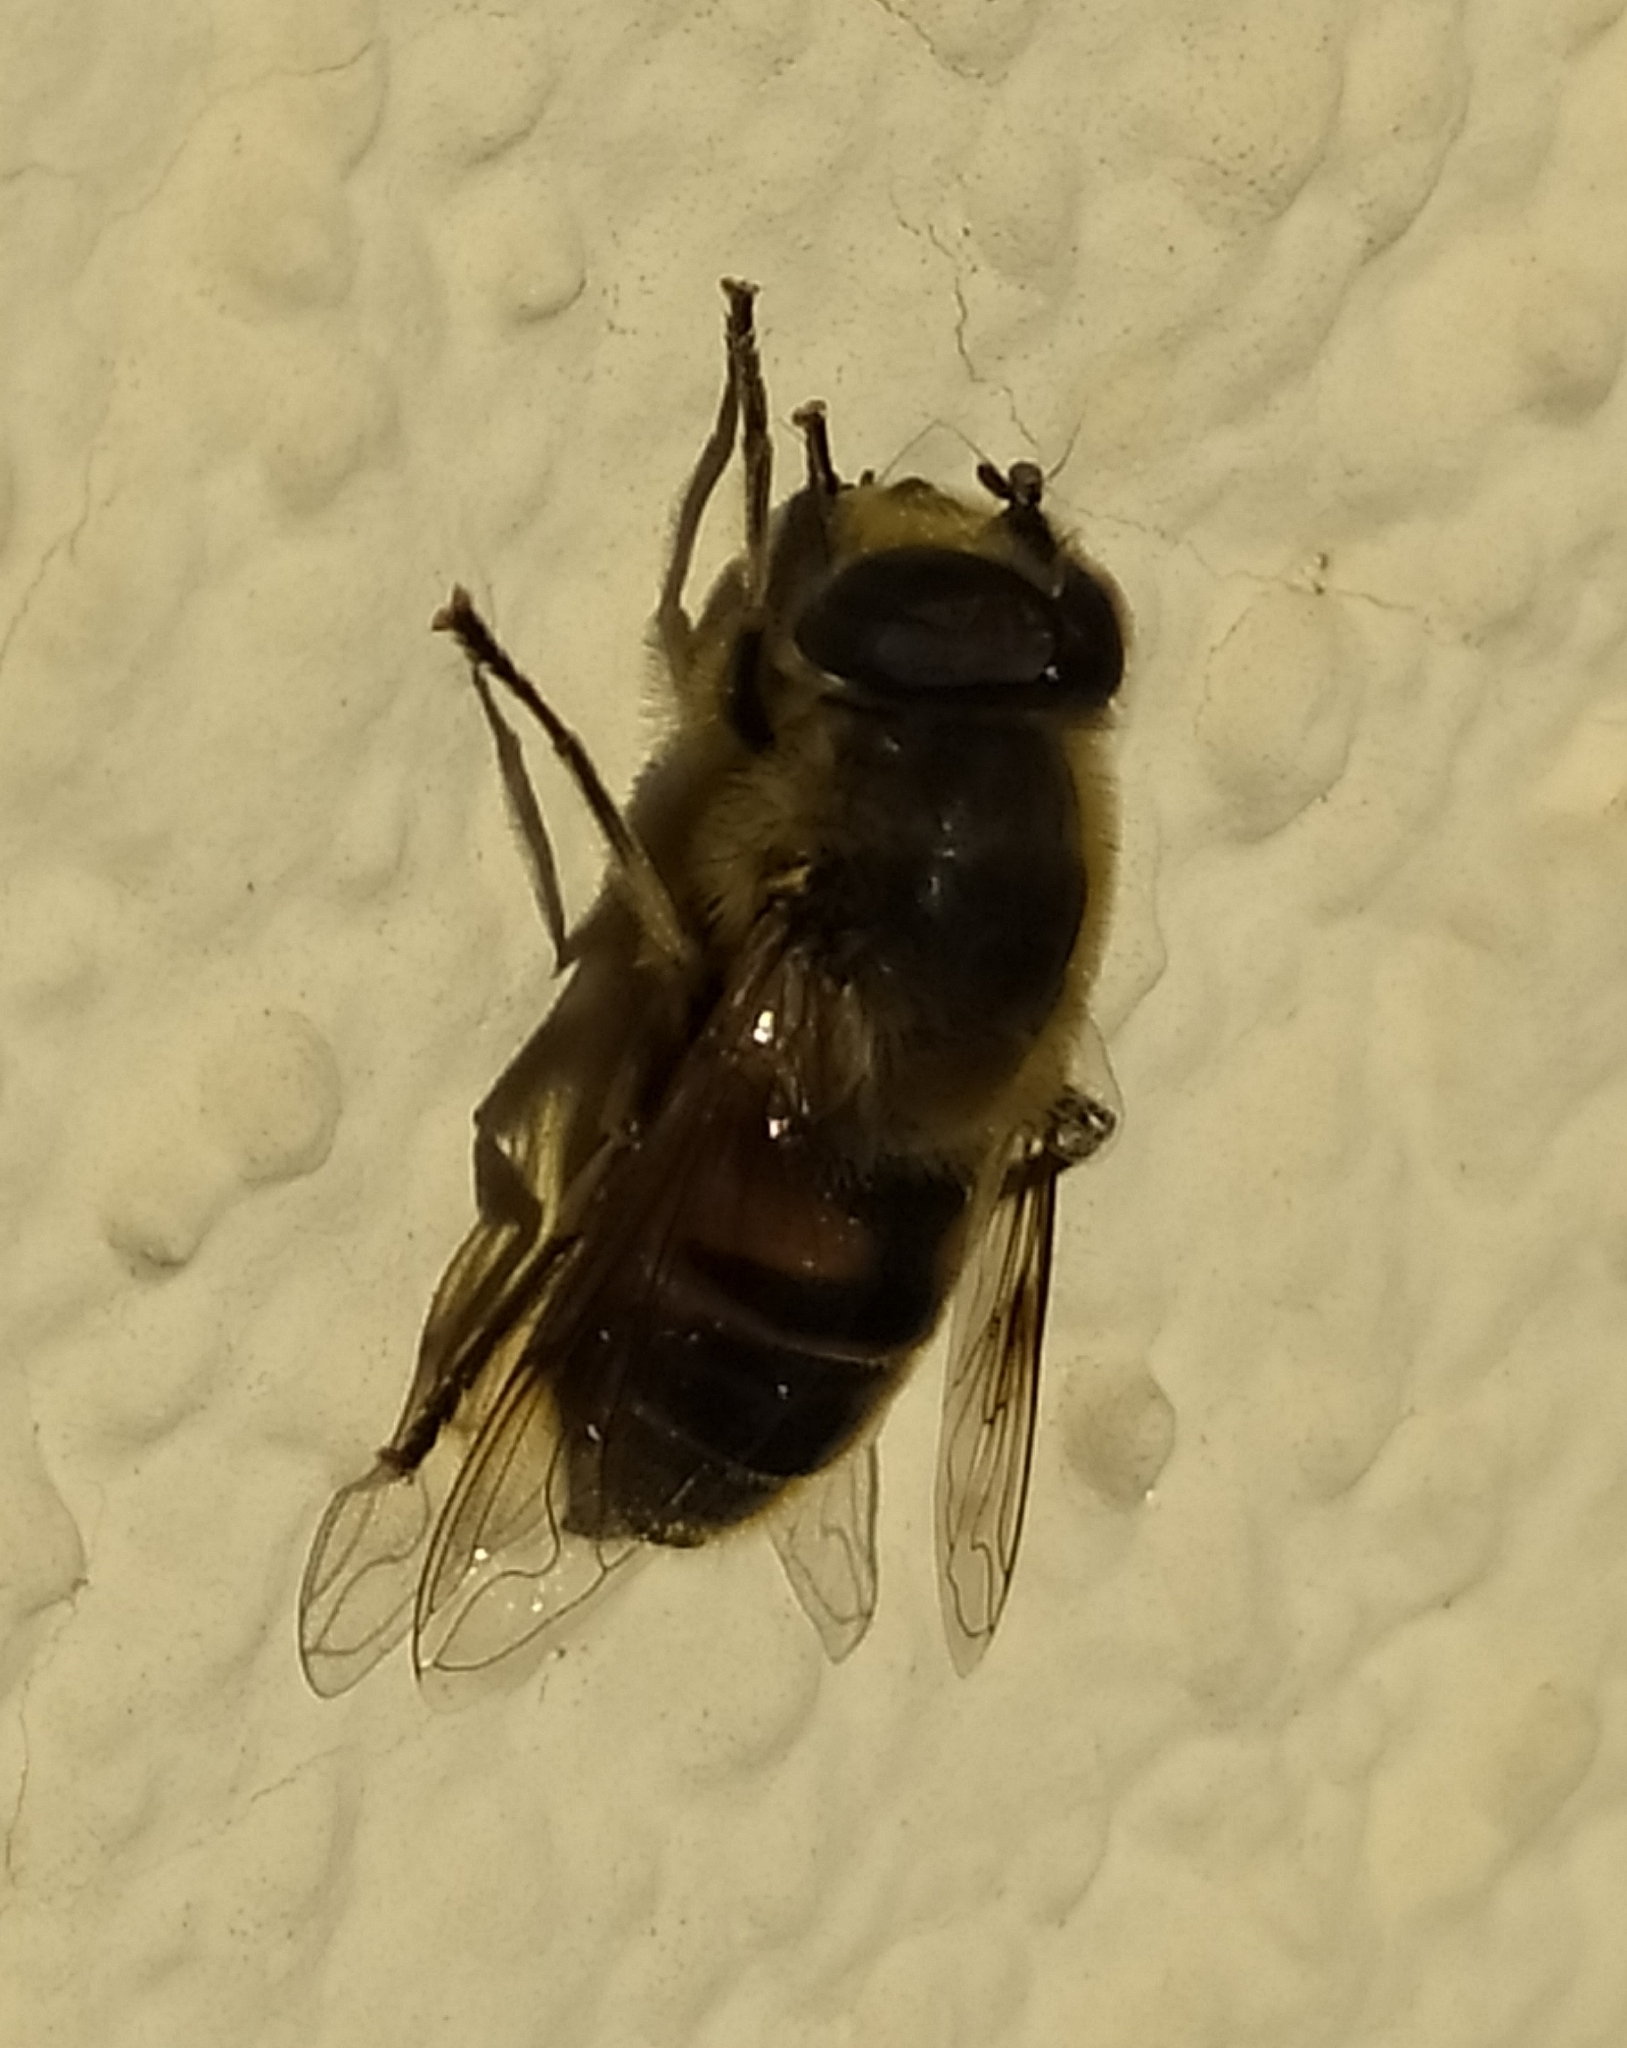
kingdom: Animalia
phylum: Arthropoda
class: Insecta
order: Diptera
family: Syrphidae
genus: Eristalis
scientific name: Eristalis tenax
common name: Drone fly
